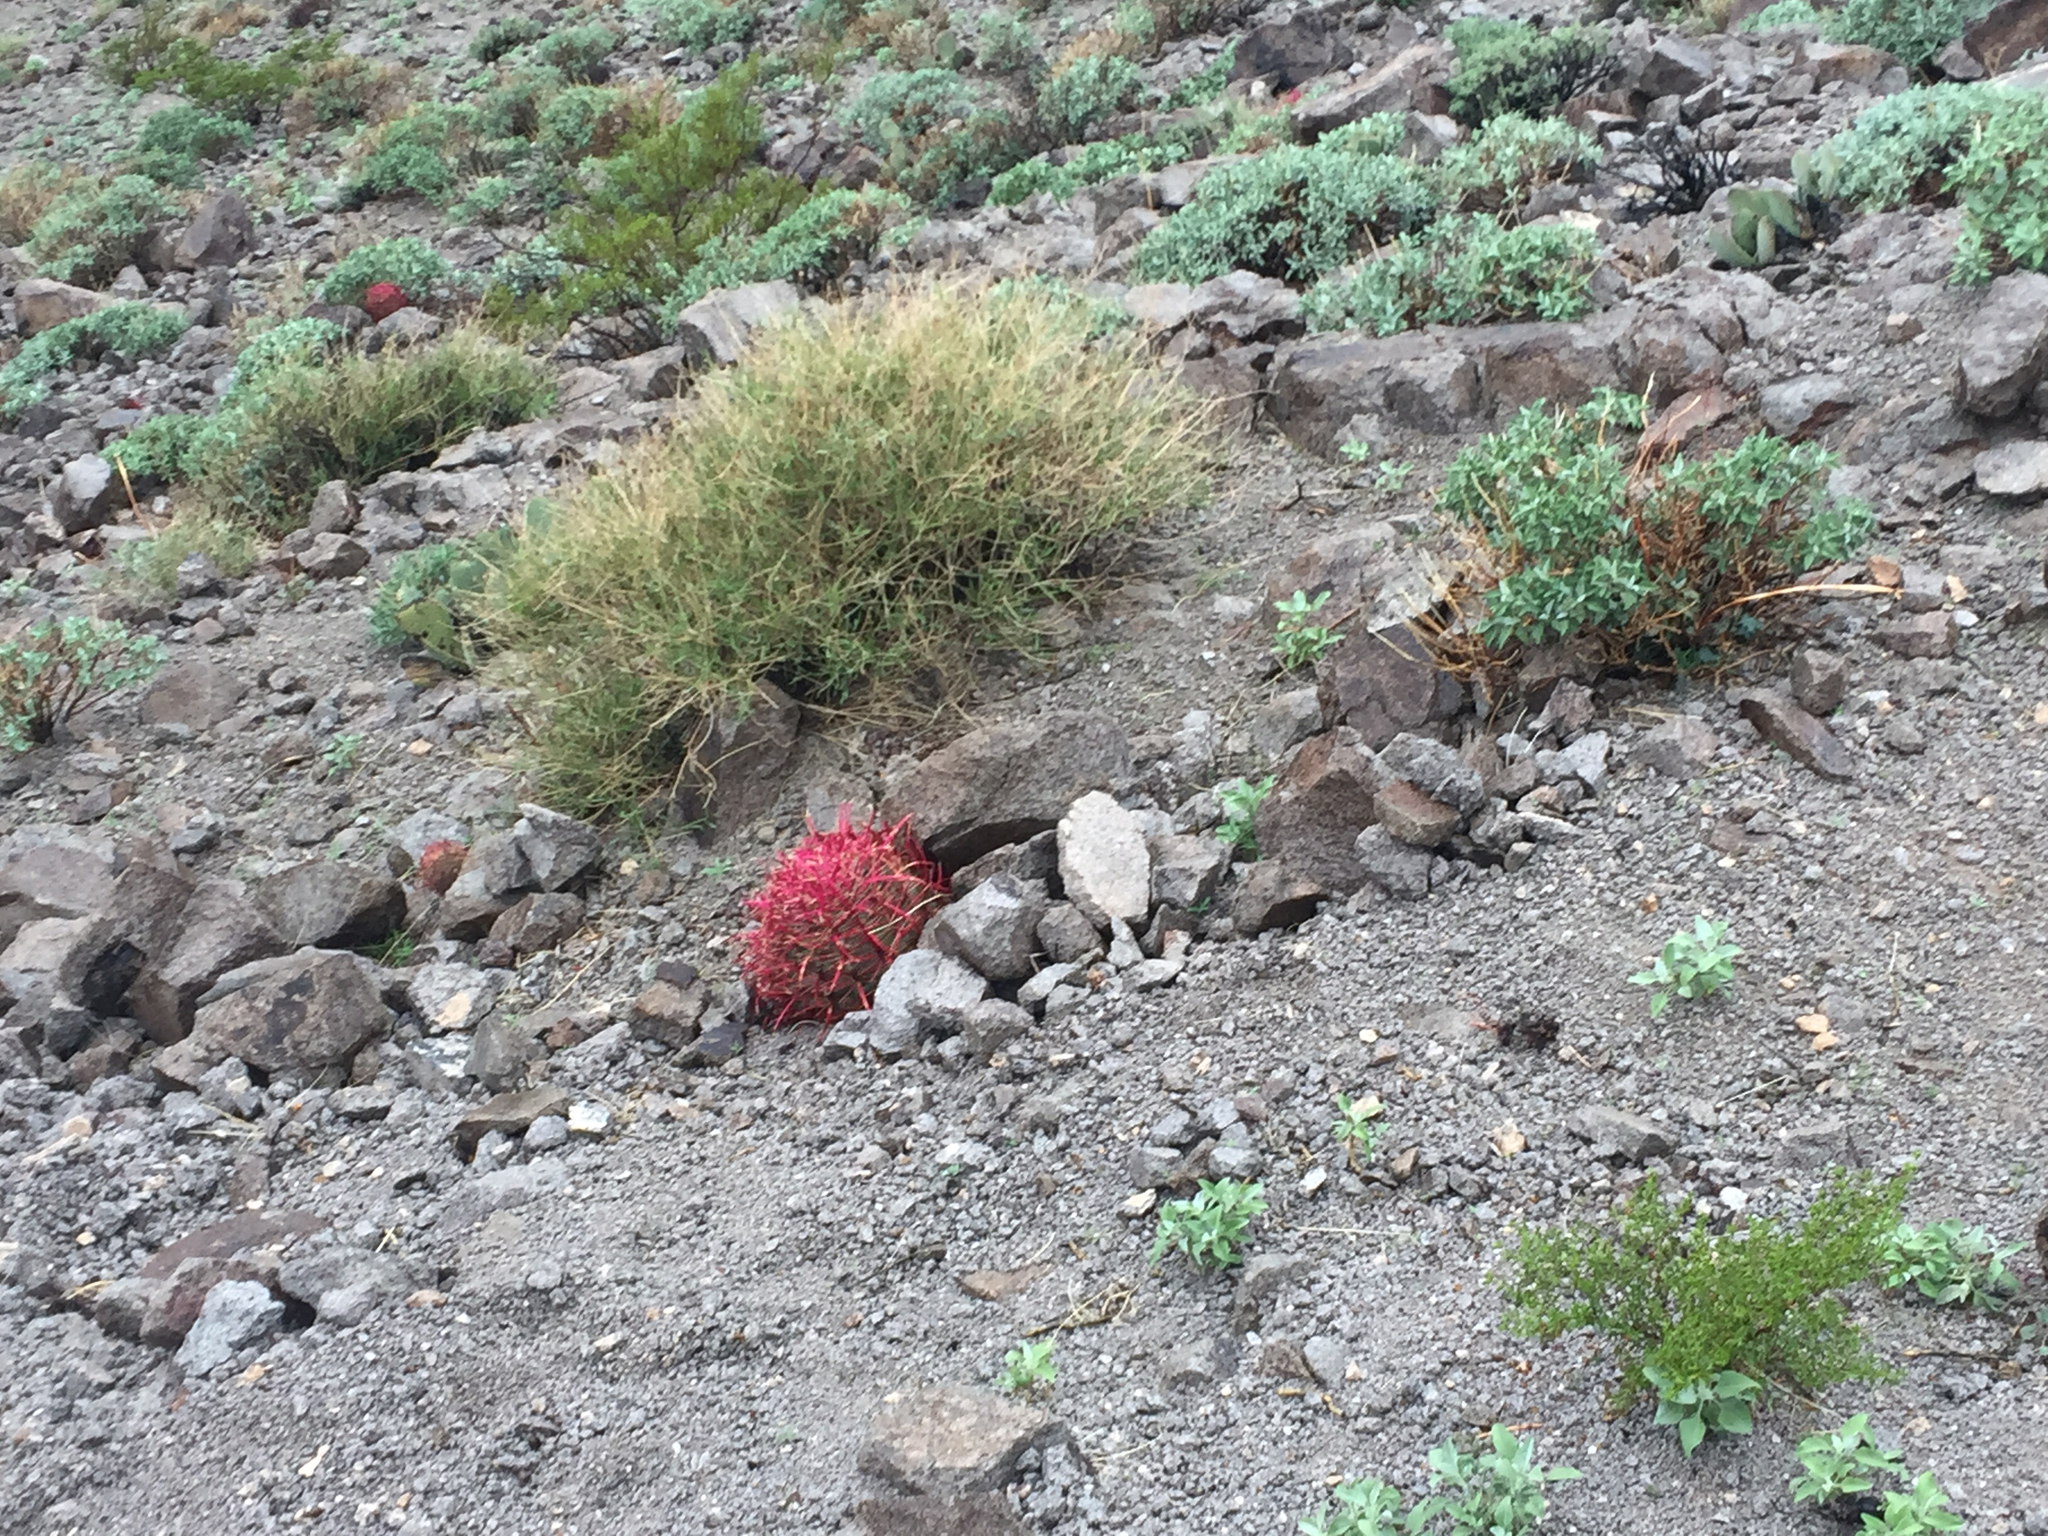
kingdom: Plantae
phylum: Tracheophyta
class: Magnoliopsida
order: Caryophyllales
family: Cactaceae
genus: Ferocactus
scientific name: Ferocactus cylindraceus
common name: California barrel cactus
